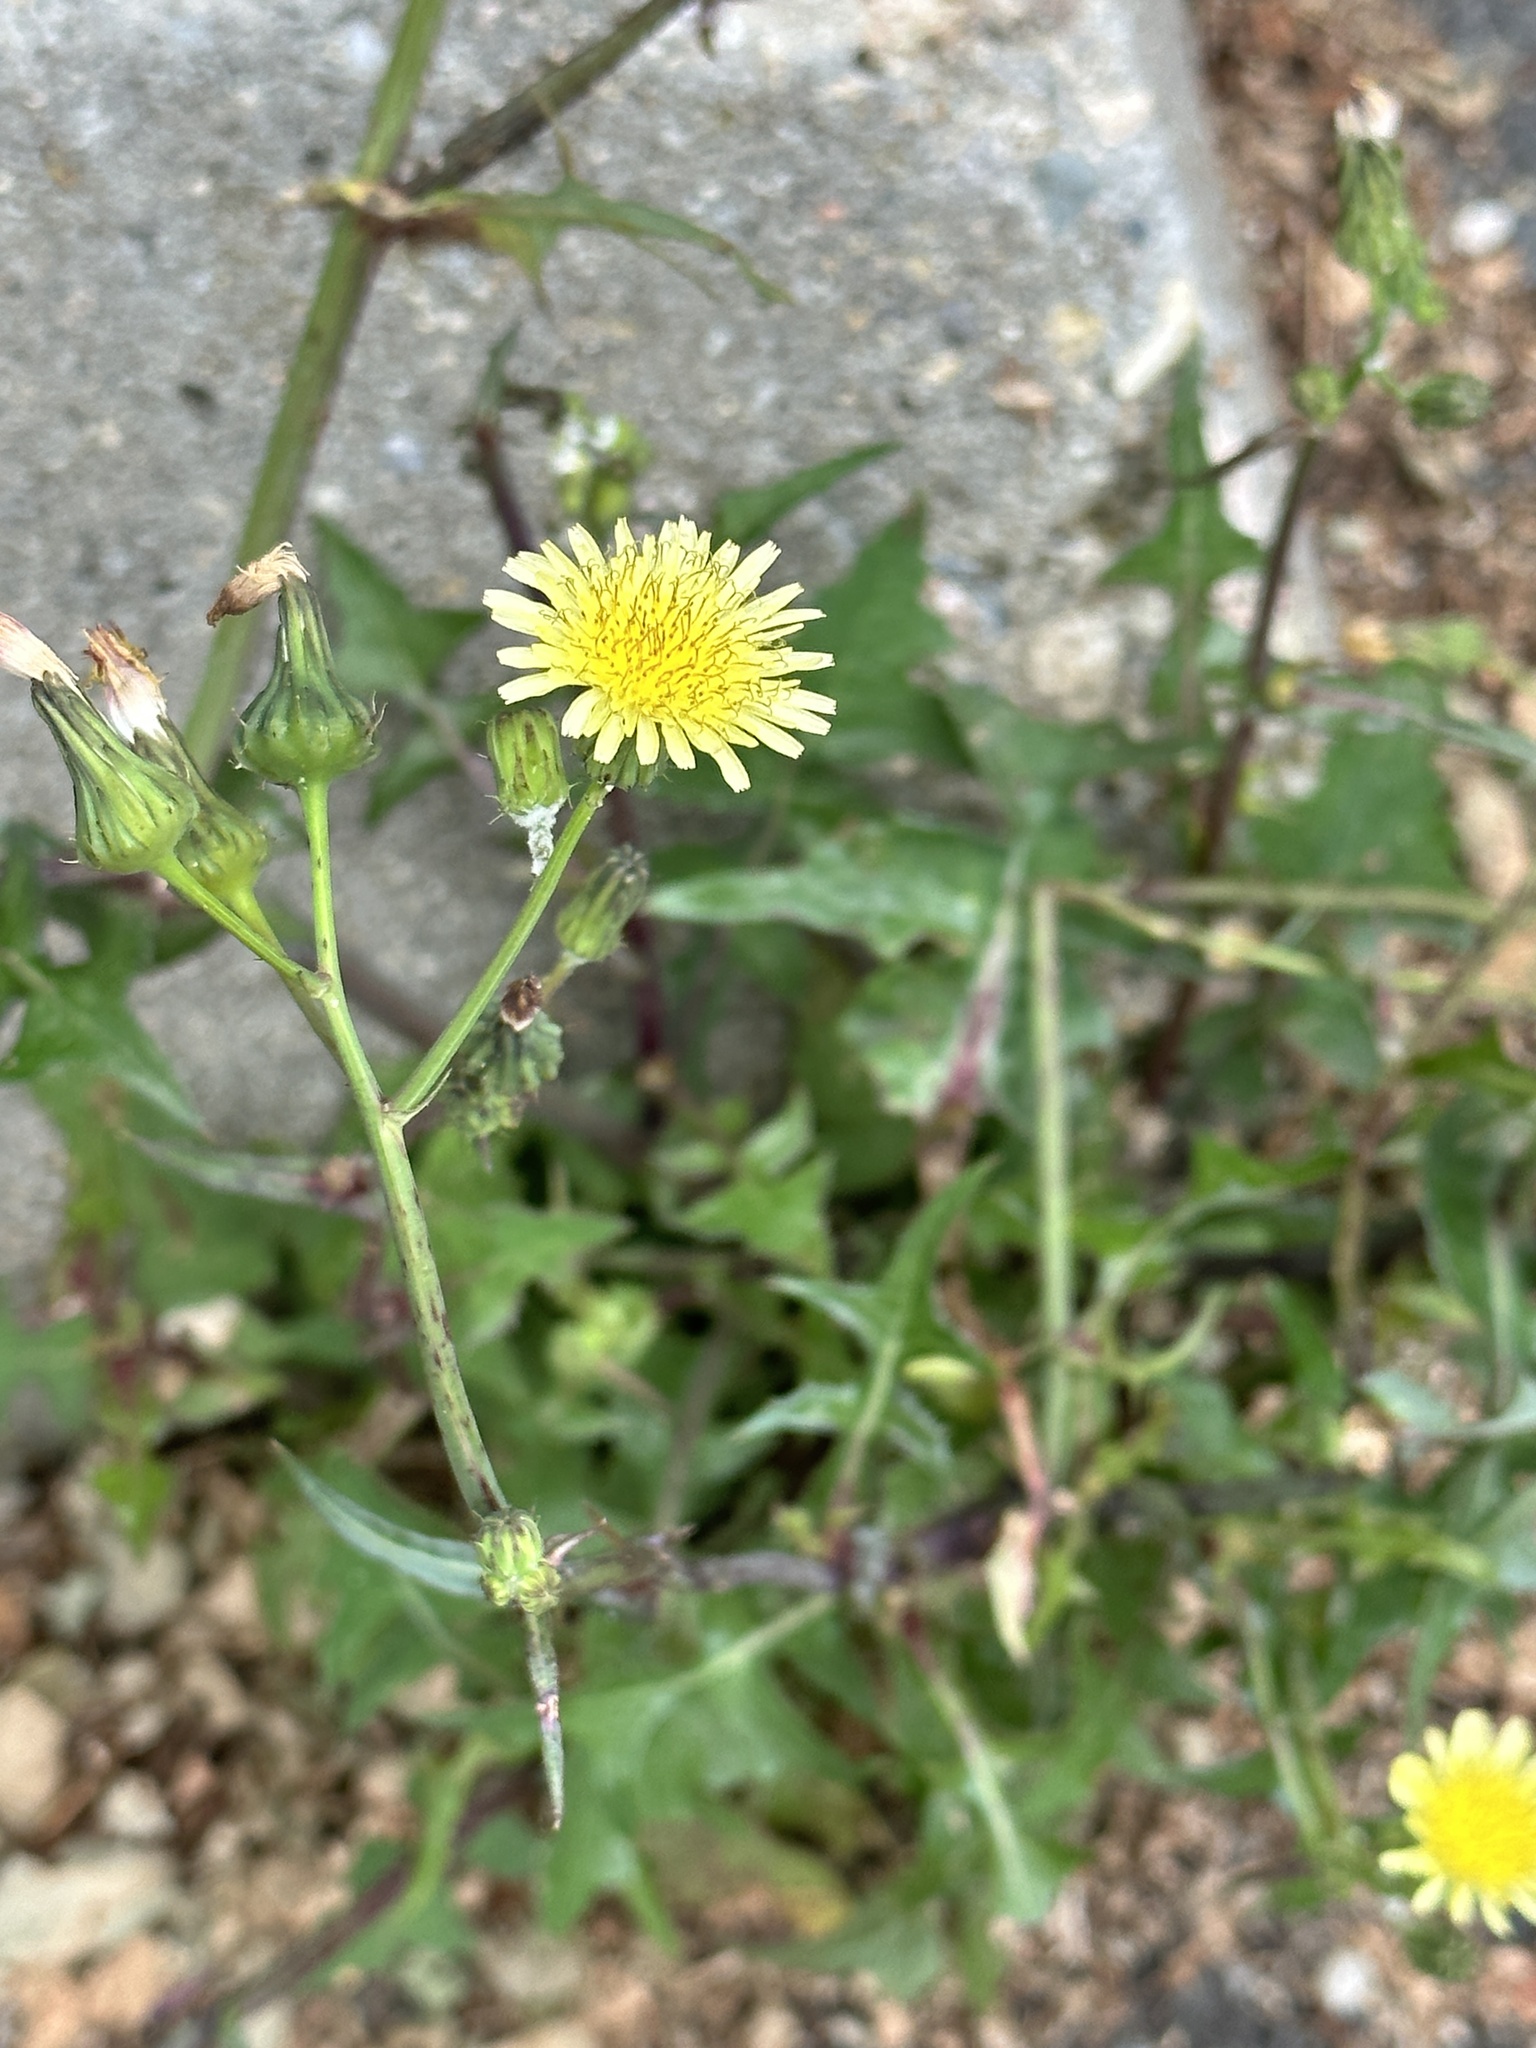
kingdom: Plantae
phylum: Tracheophyta
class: Magnoliopsida
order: Asterales
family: Asteraceae
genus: Sonchus
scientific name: Sonchus oleraceus
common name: Common sowthistle
